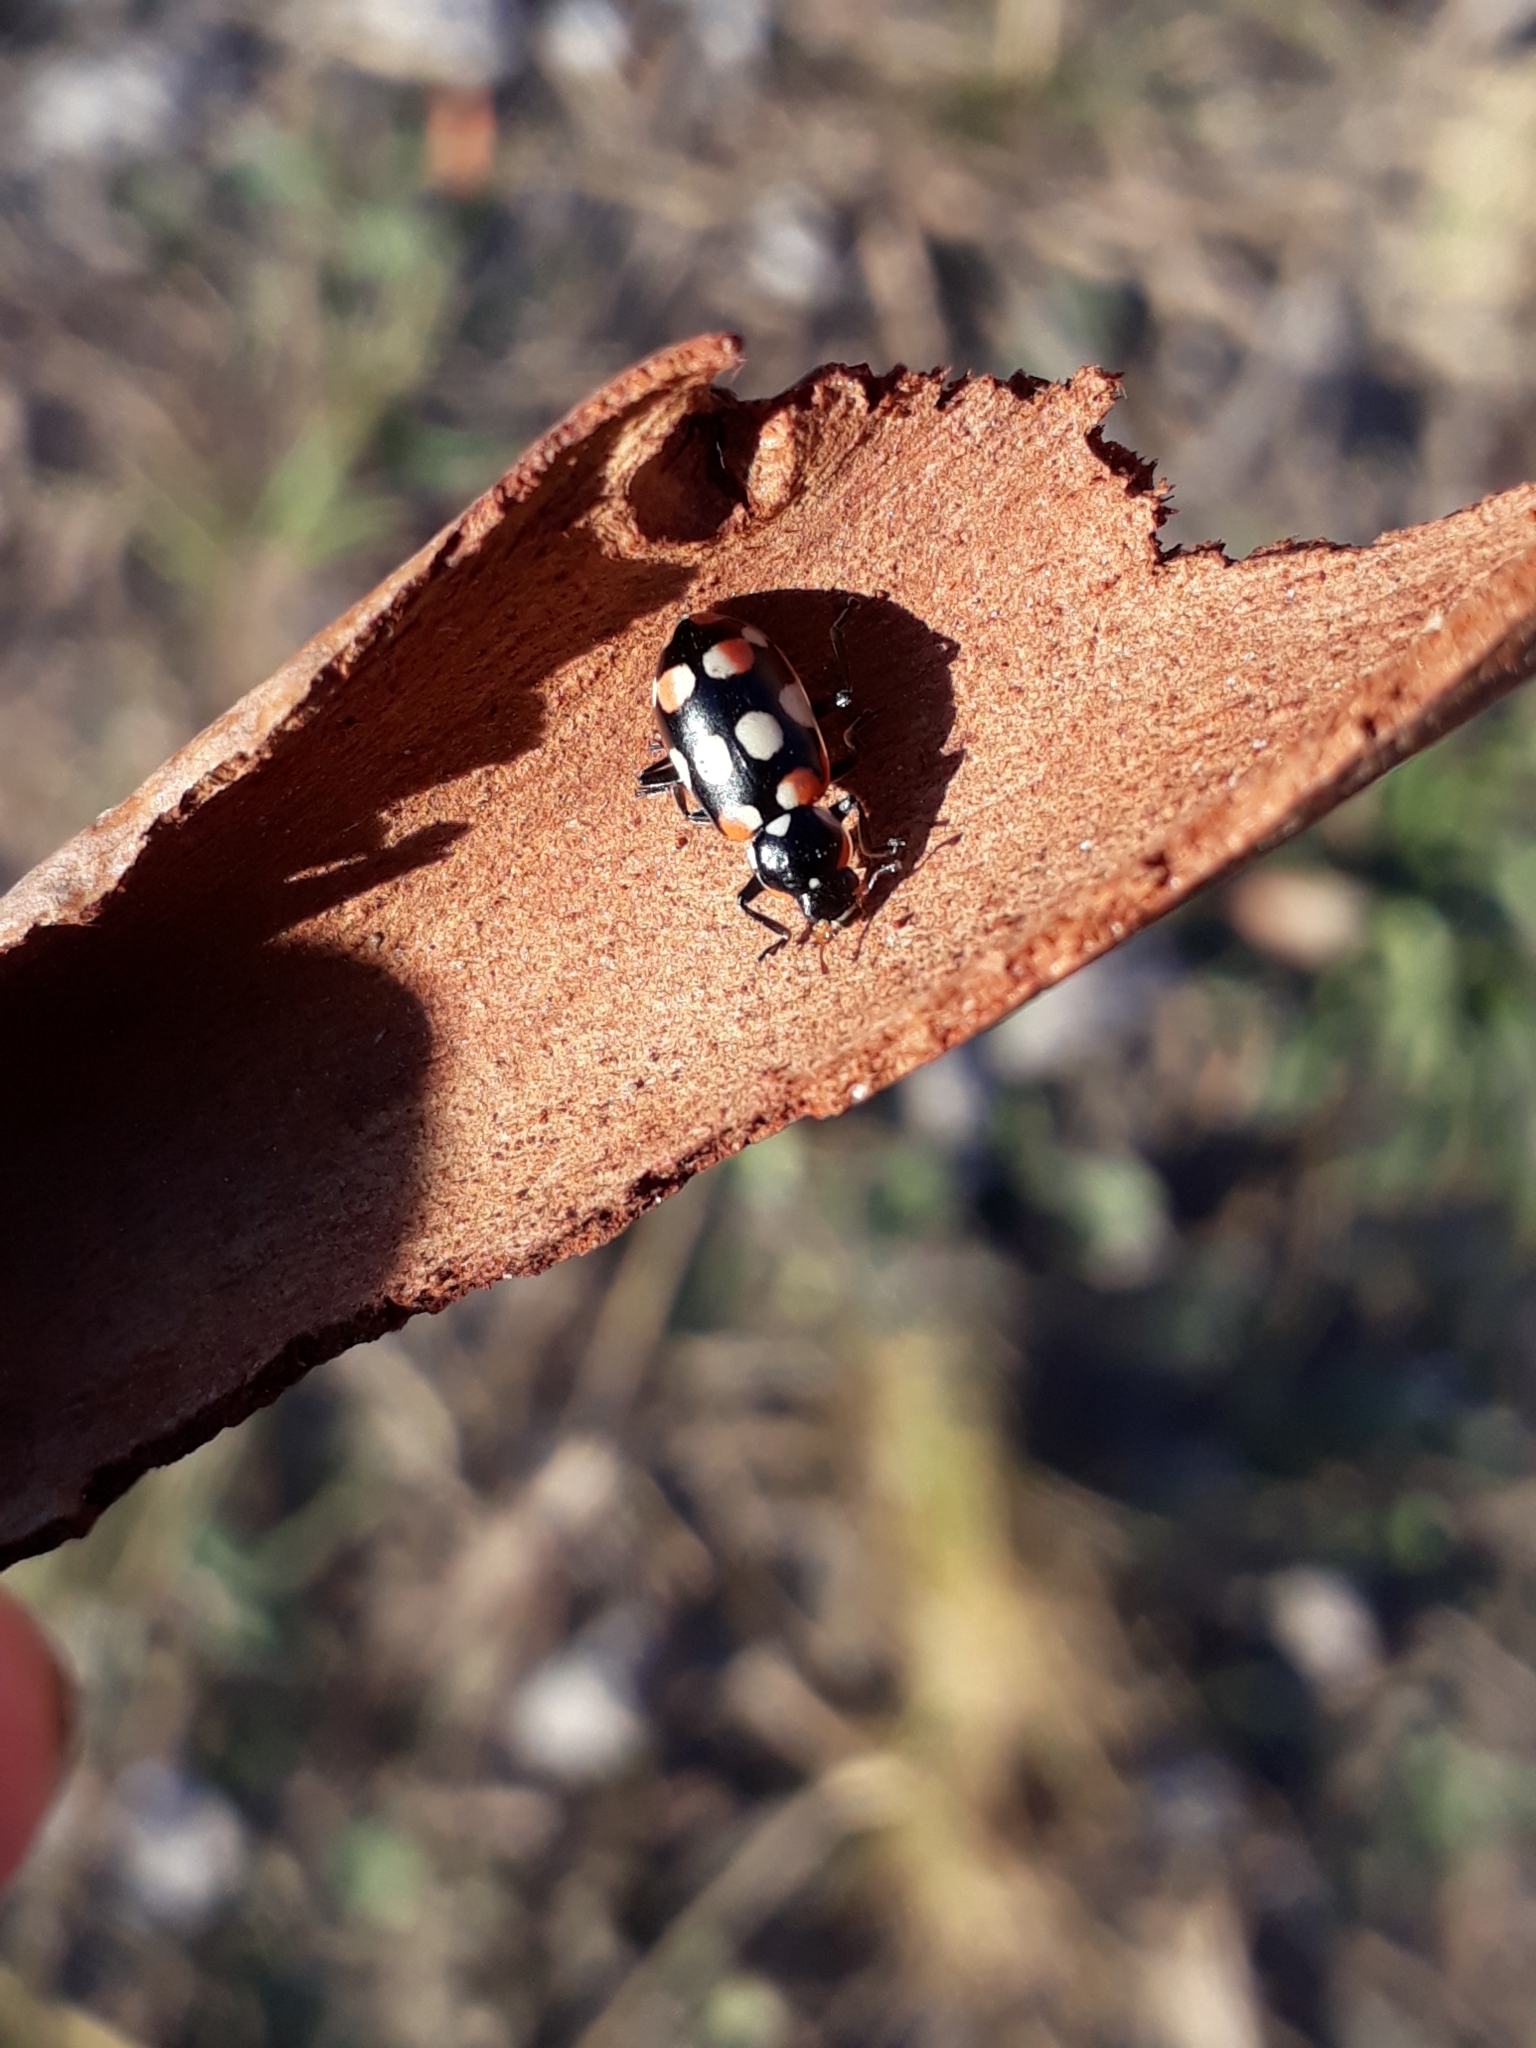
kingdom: Animalia
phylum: Arthropoda
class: Insecta
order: Coleoptera
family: Coccinellidae
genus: Eriopis
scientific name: Eriopis connexa
